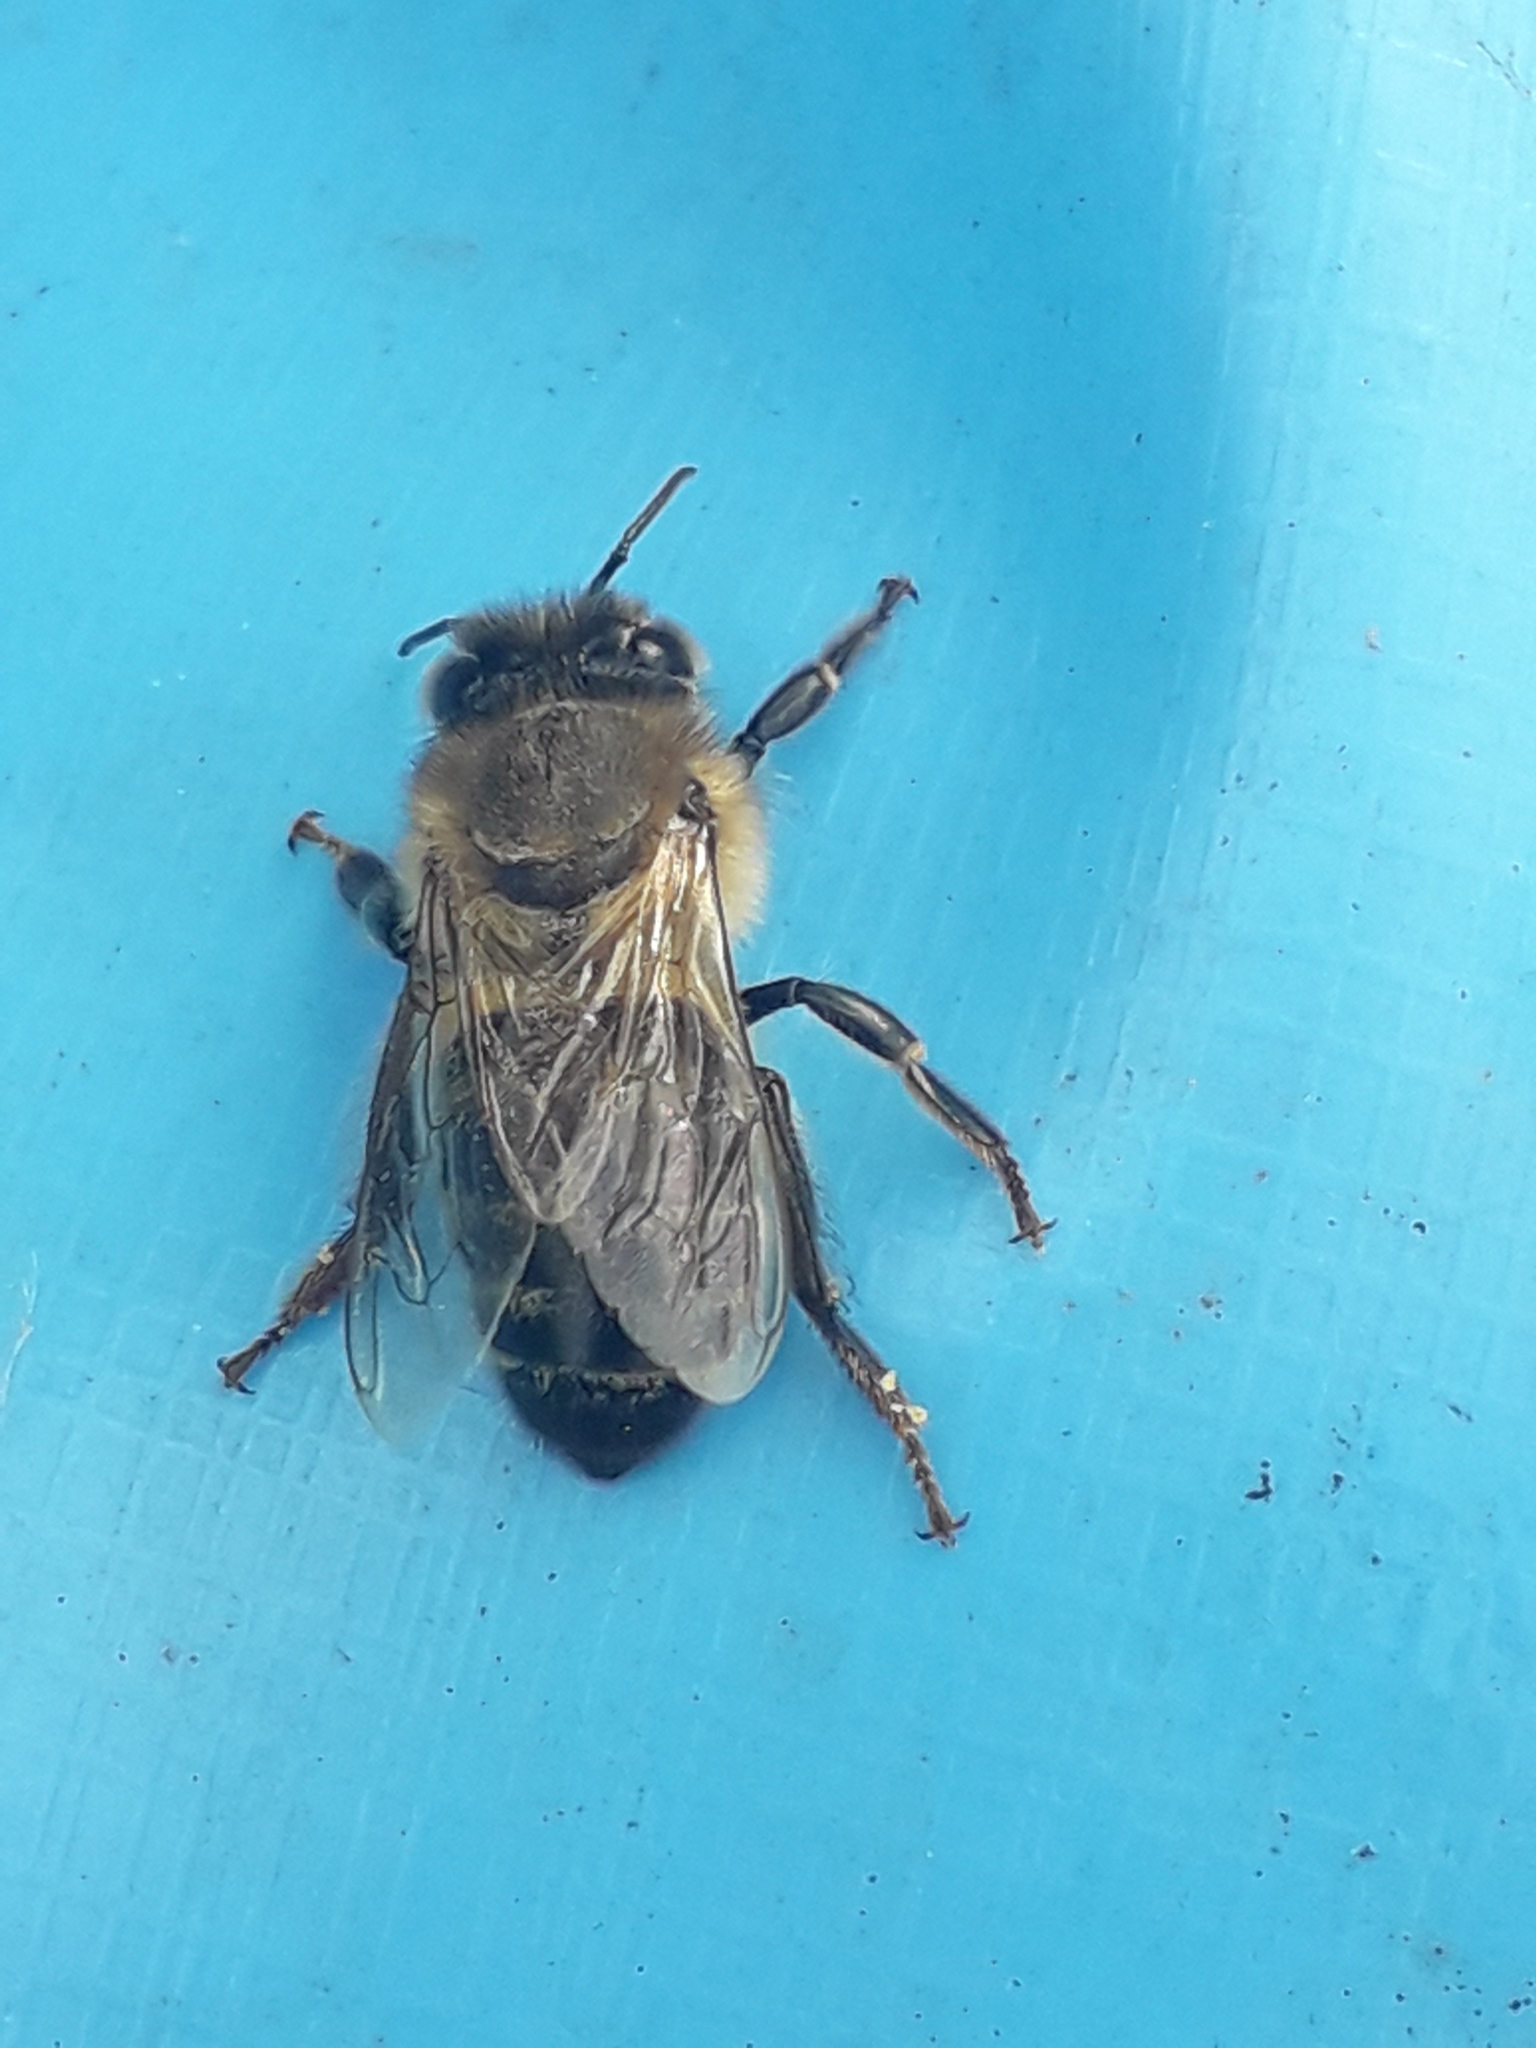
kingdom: Animalia
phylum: Arthropoda
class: Insecta
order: Hymenoptera
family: Apidae
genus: Apis
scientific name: Apis mellifera
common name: Honey bee
